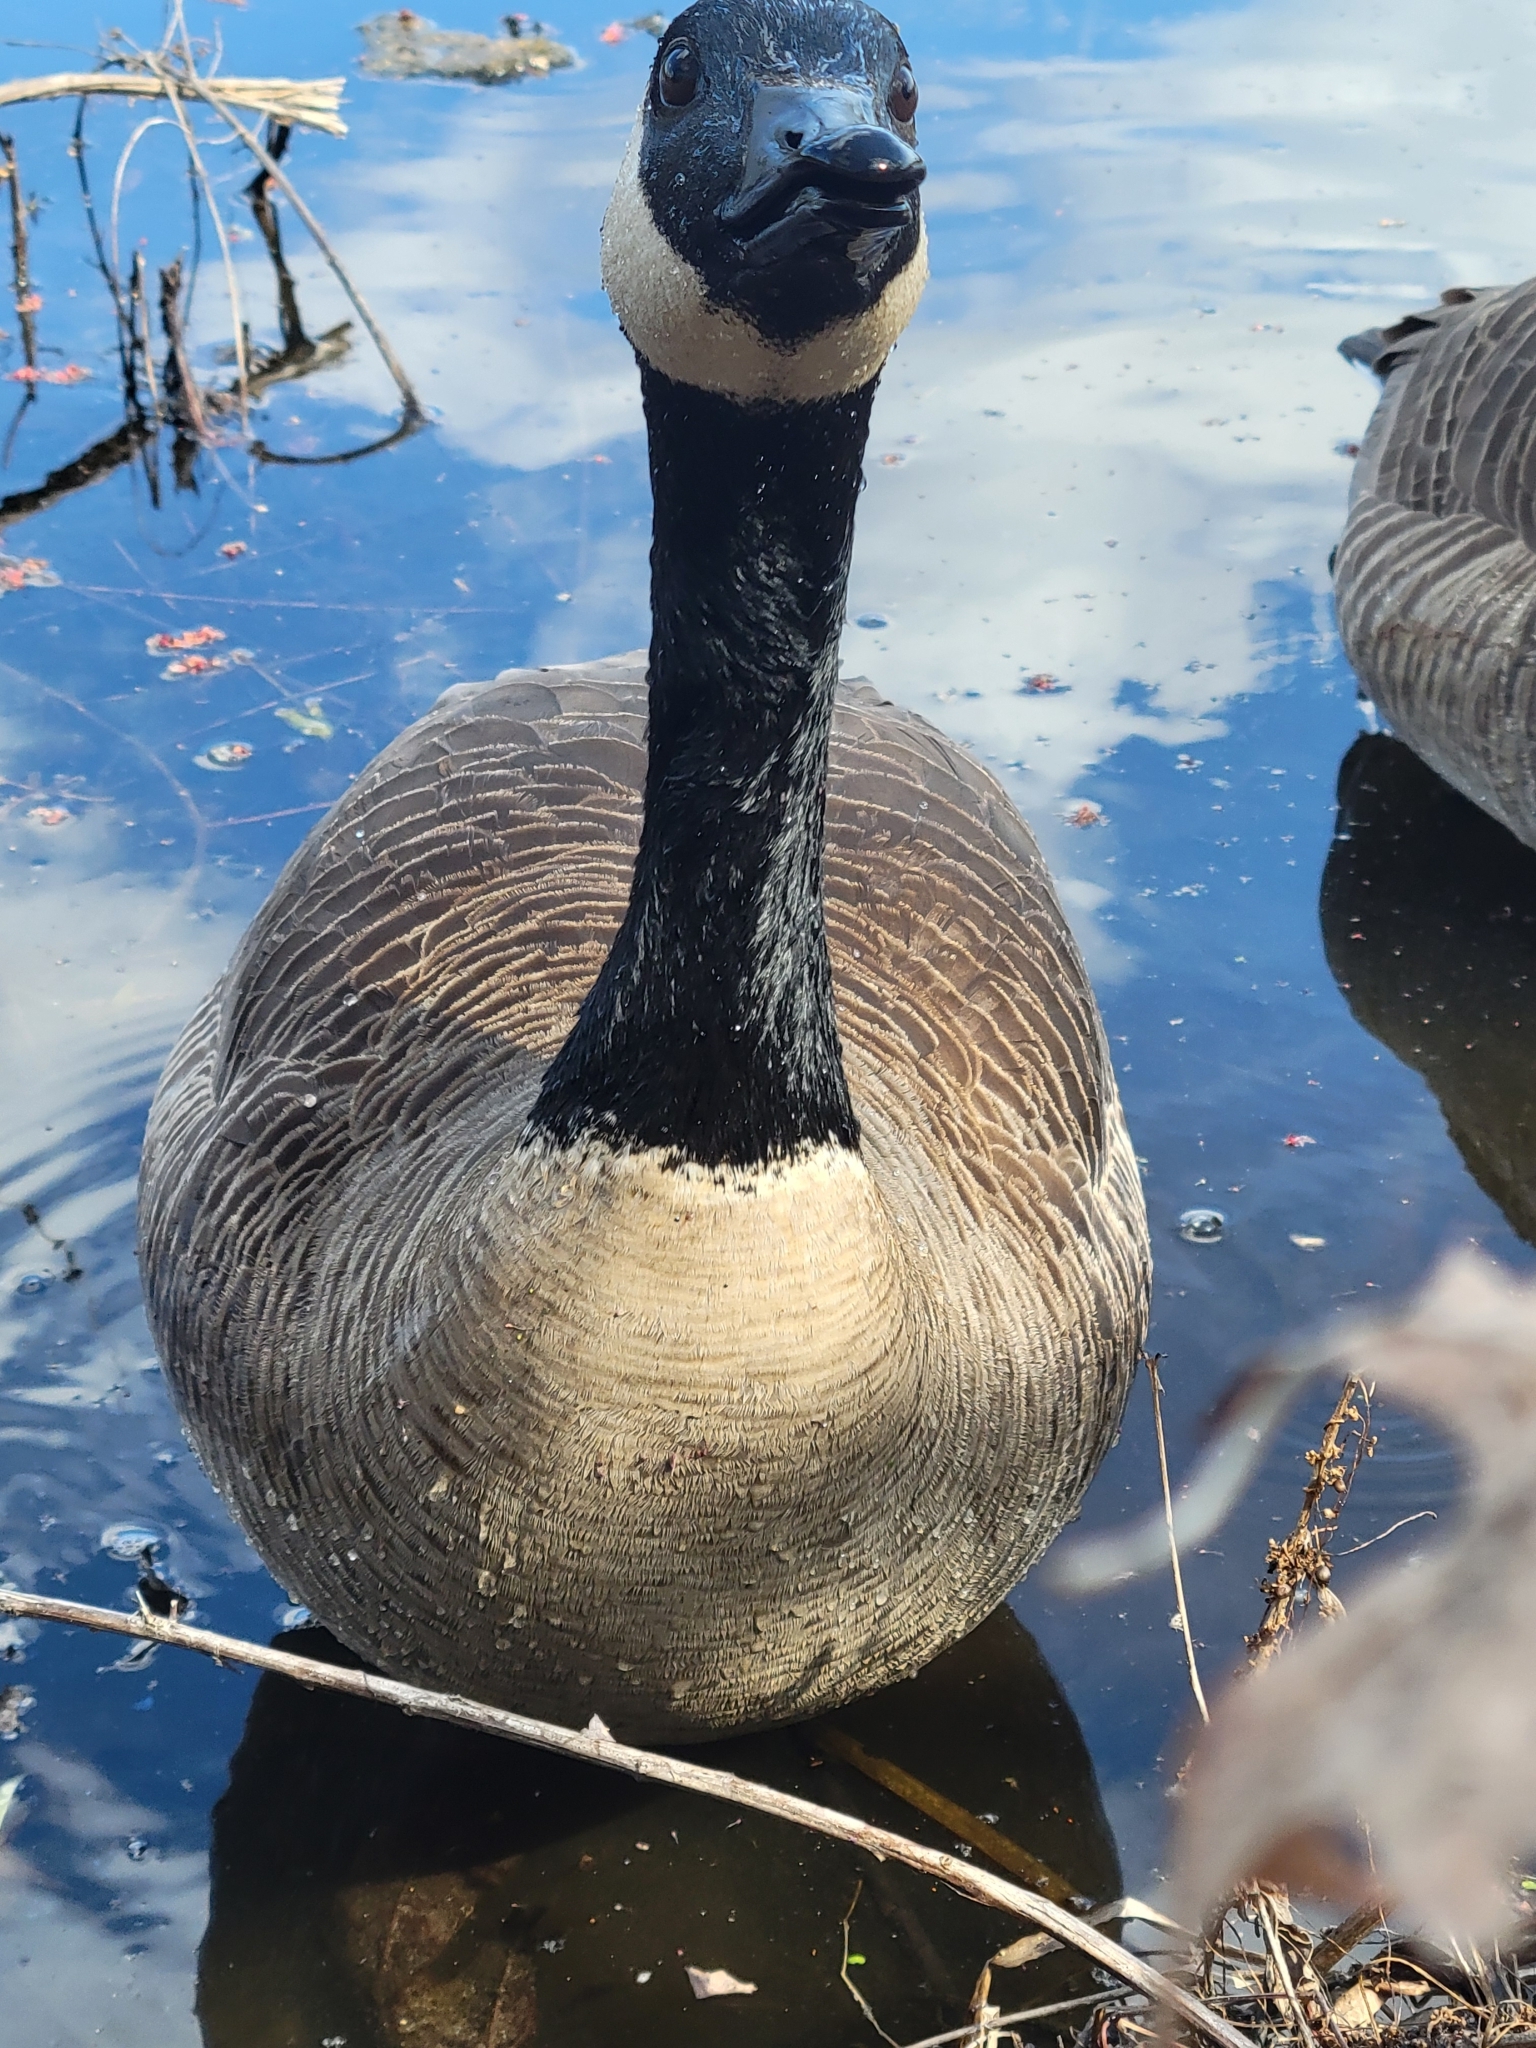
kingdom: Animalia
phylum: Chordata
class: Aves
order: Anseriformes
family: Anatidae
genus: Branta
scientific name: Branta canadensis
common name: Canada goose
